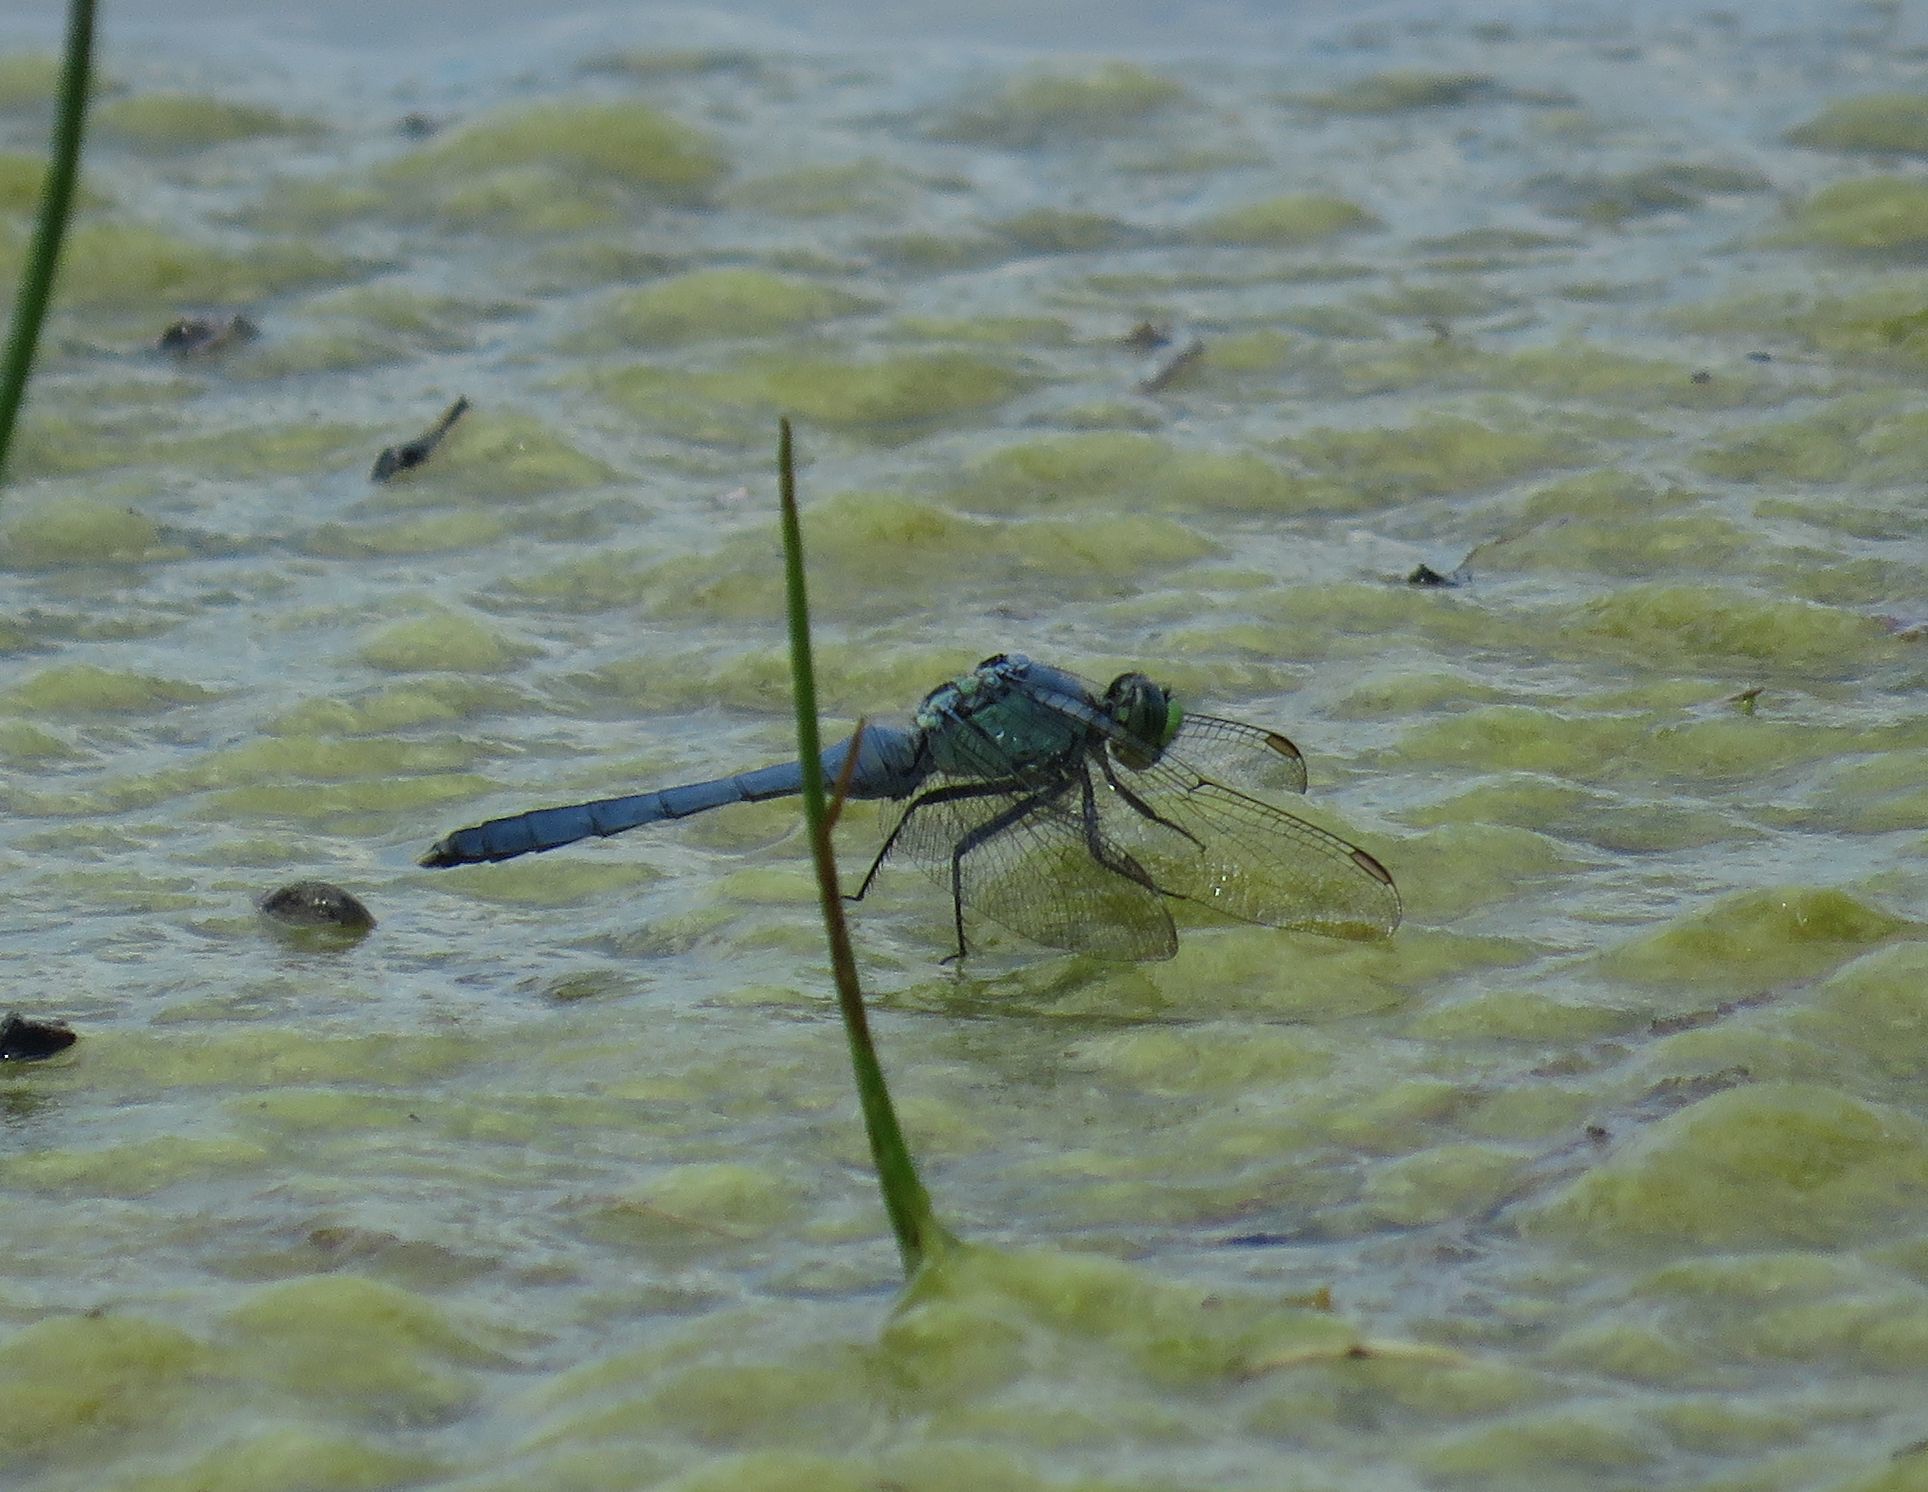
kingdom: Animalia
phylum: Arthropoda
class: Insecta
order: Odonata
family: Libellulidae
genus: Erythemis
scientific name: Erythemis simplicicollis
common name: Eastern pondhawk
